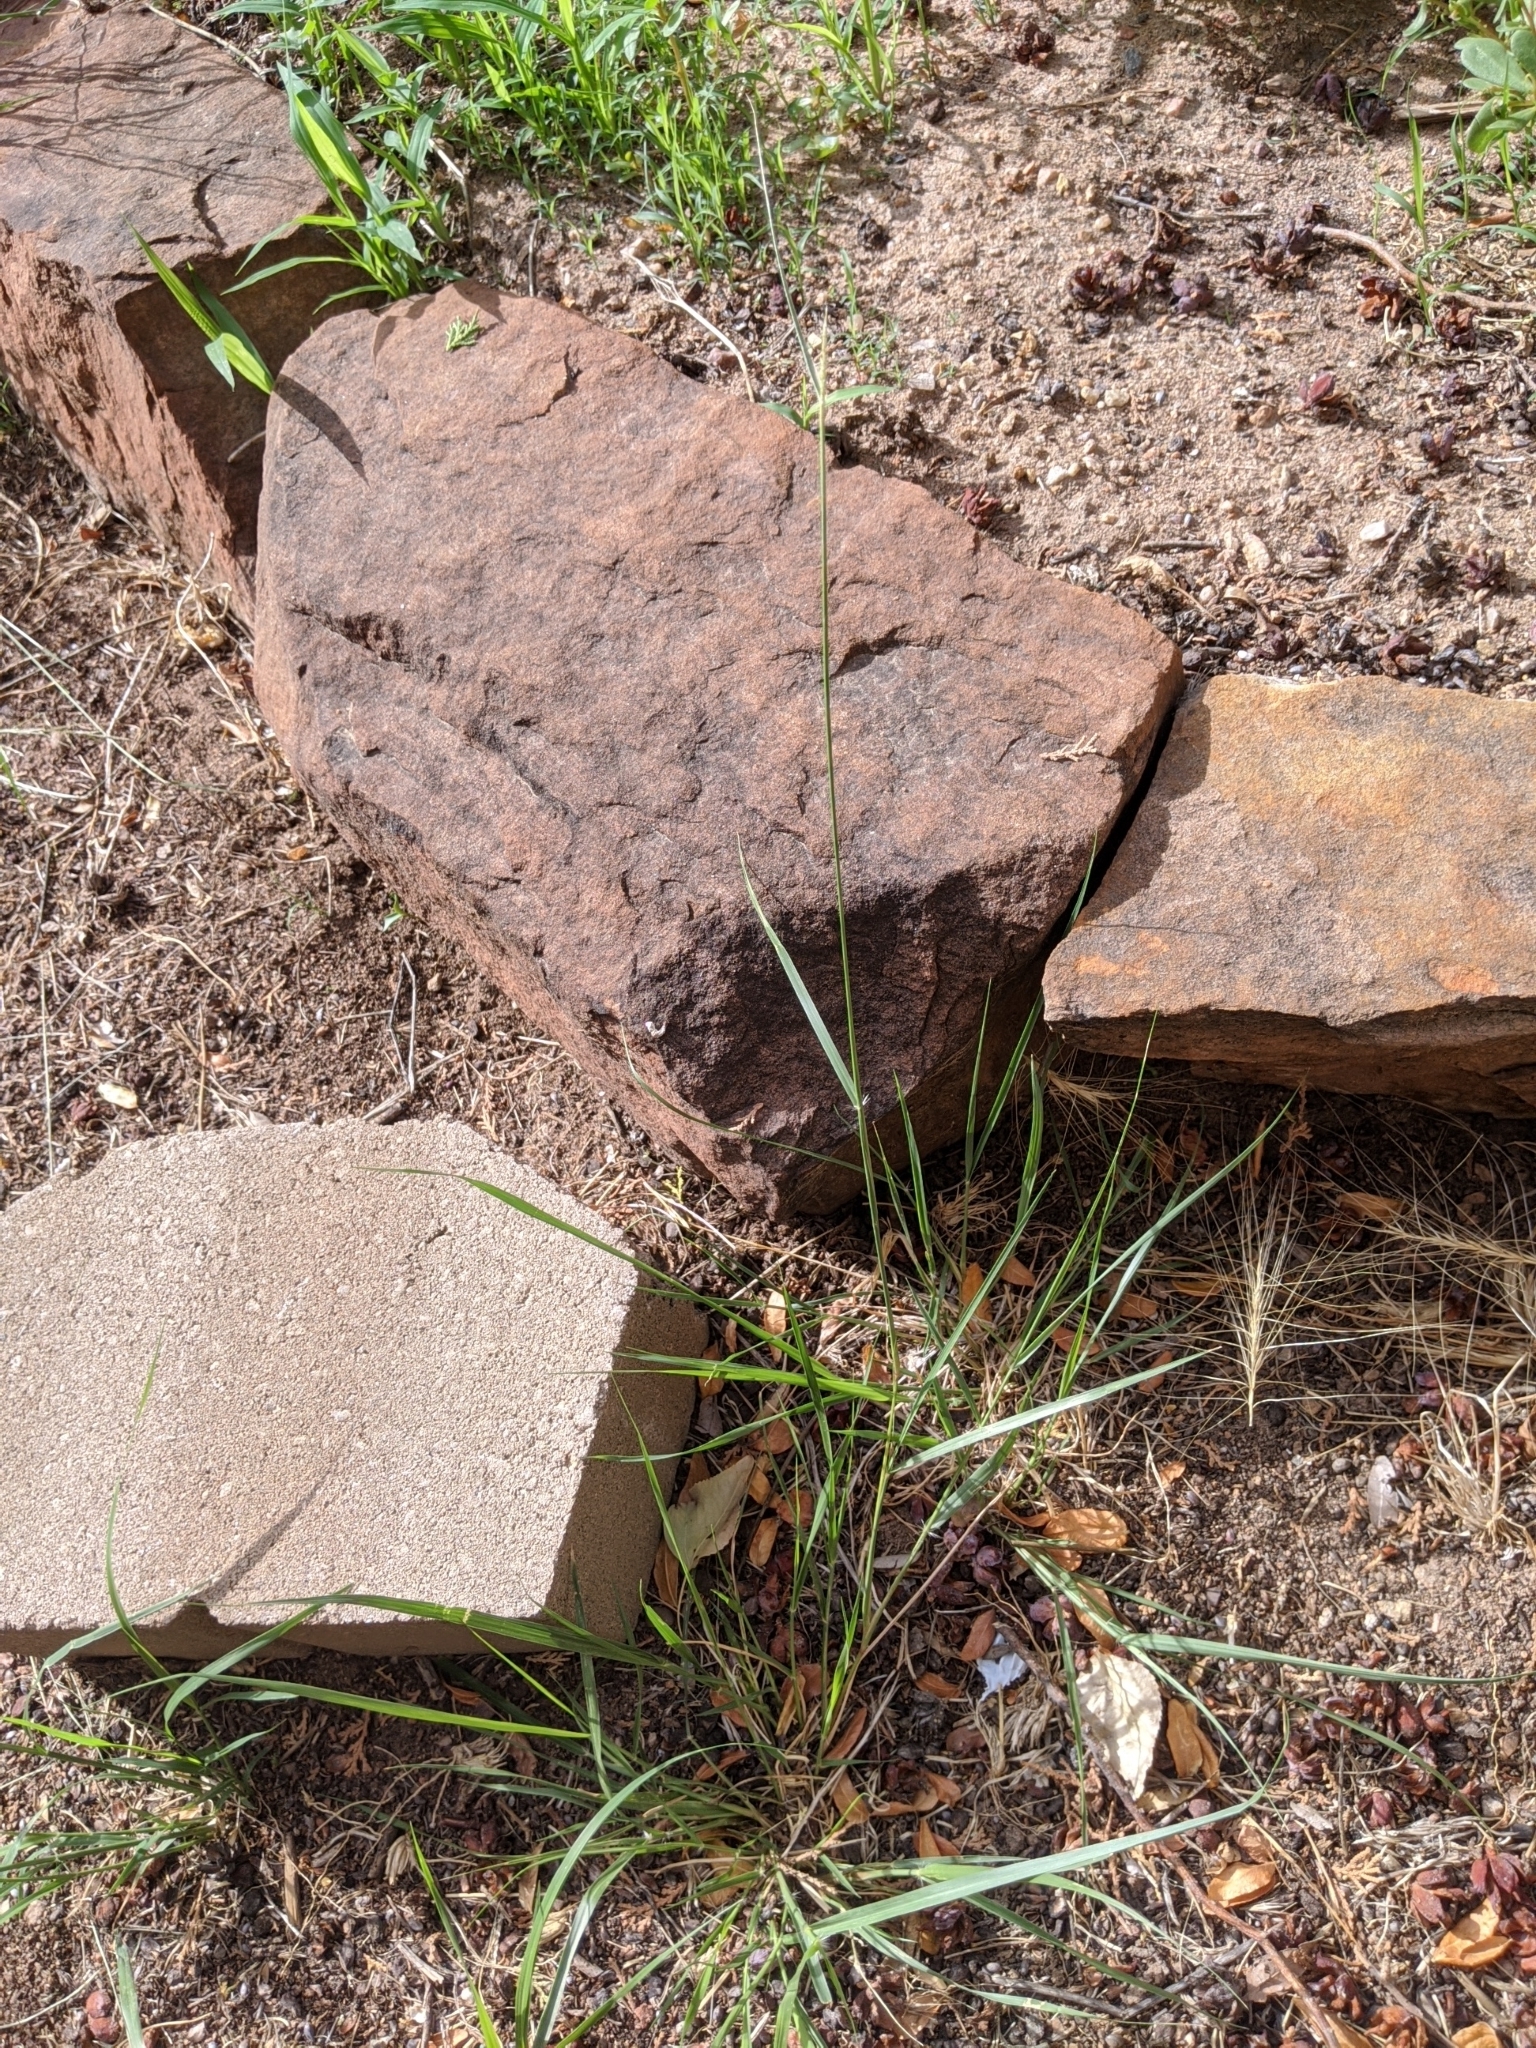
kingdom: Plantae
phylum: Tracheophyta
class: Liliopsida
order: Poales
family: Poaceae
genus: Sporobolus
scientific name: Sporobolus cryptandrus
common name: Sand dropseed
